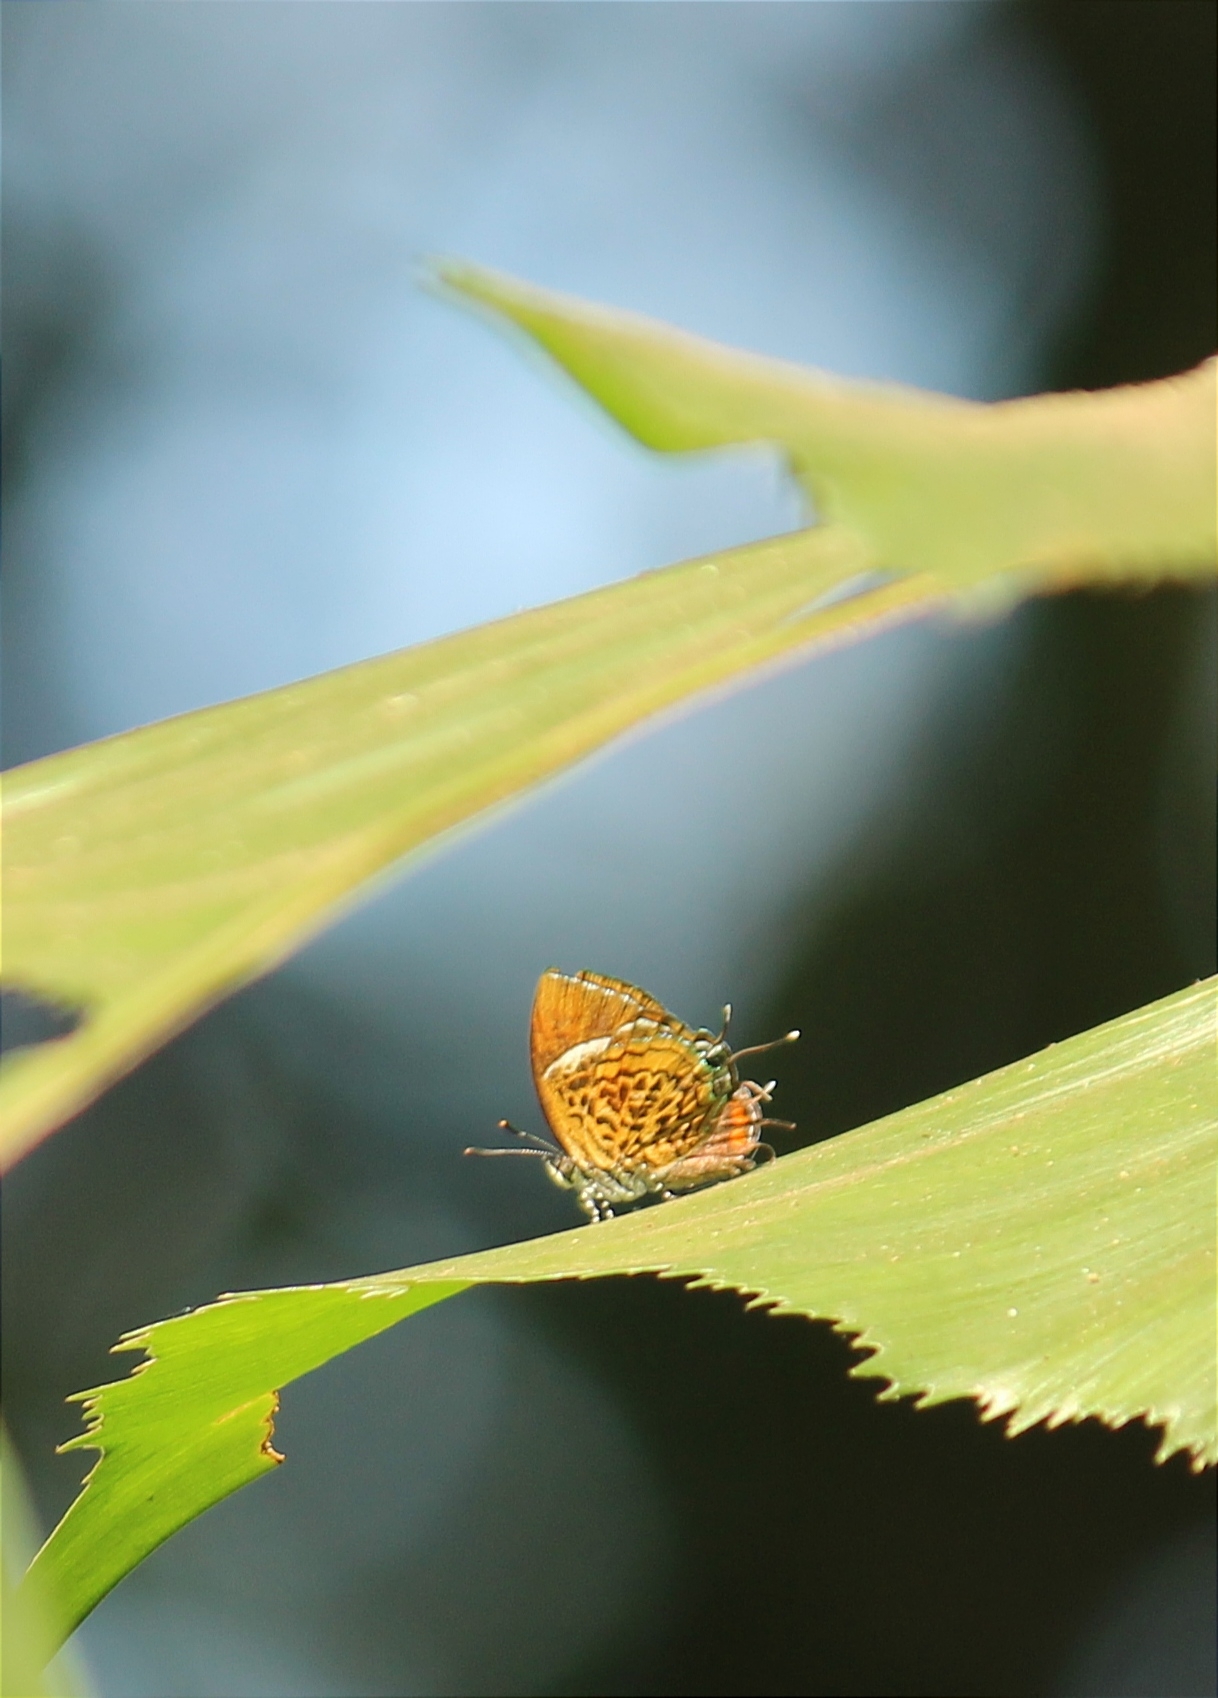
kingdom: Animalia
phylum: Arthropoda
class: Insecta
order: Lepidoptera
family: Lycaenidae
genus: Rathinda
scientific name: Rathinda amor
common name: Monkey puzzle
